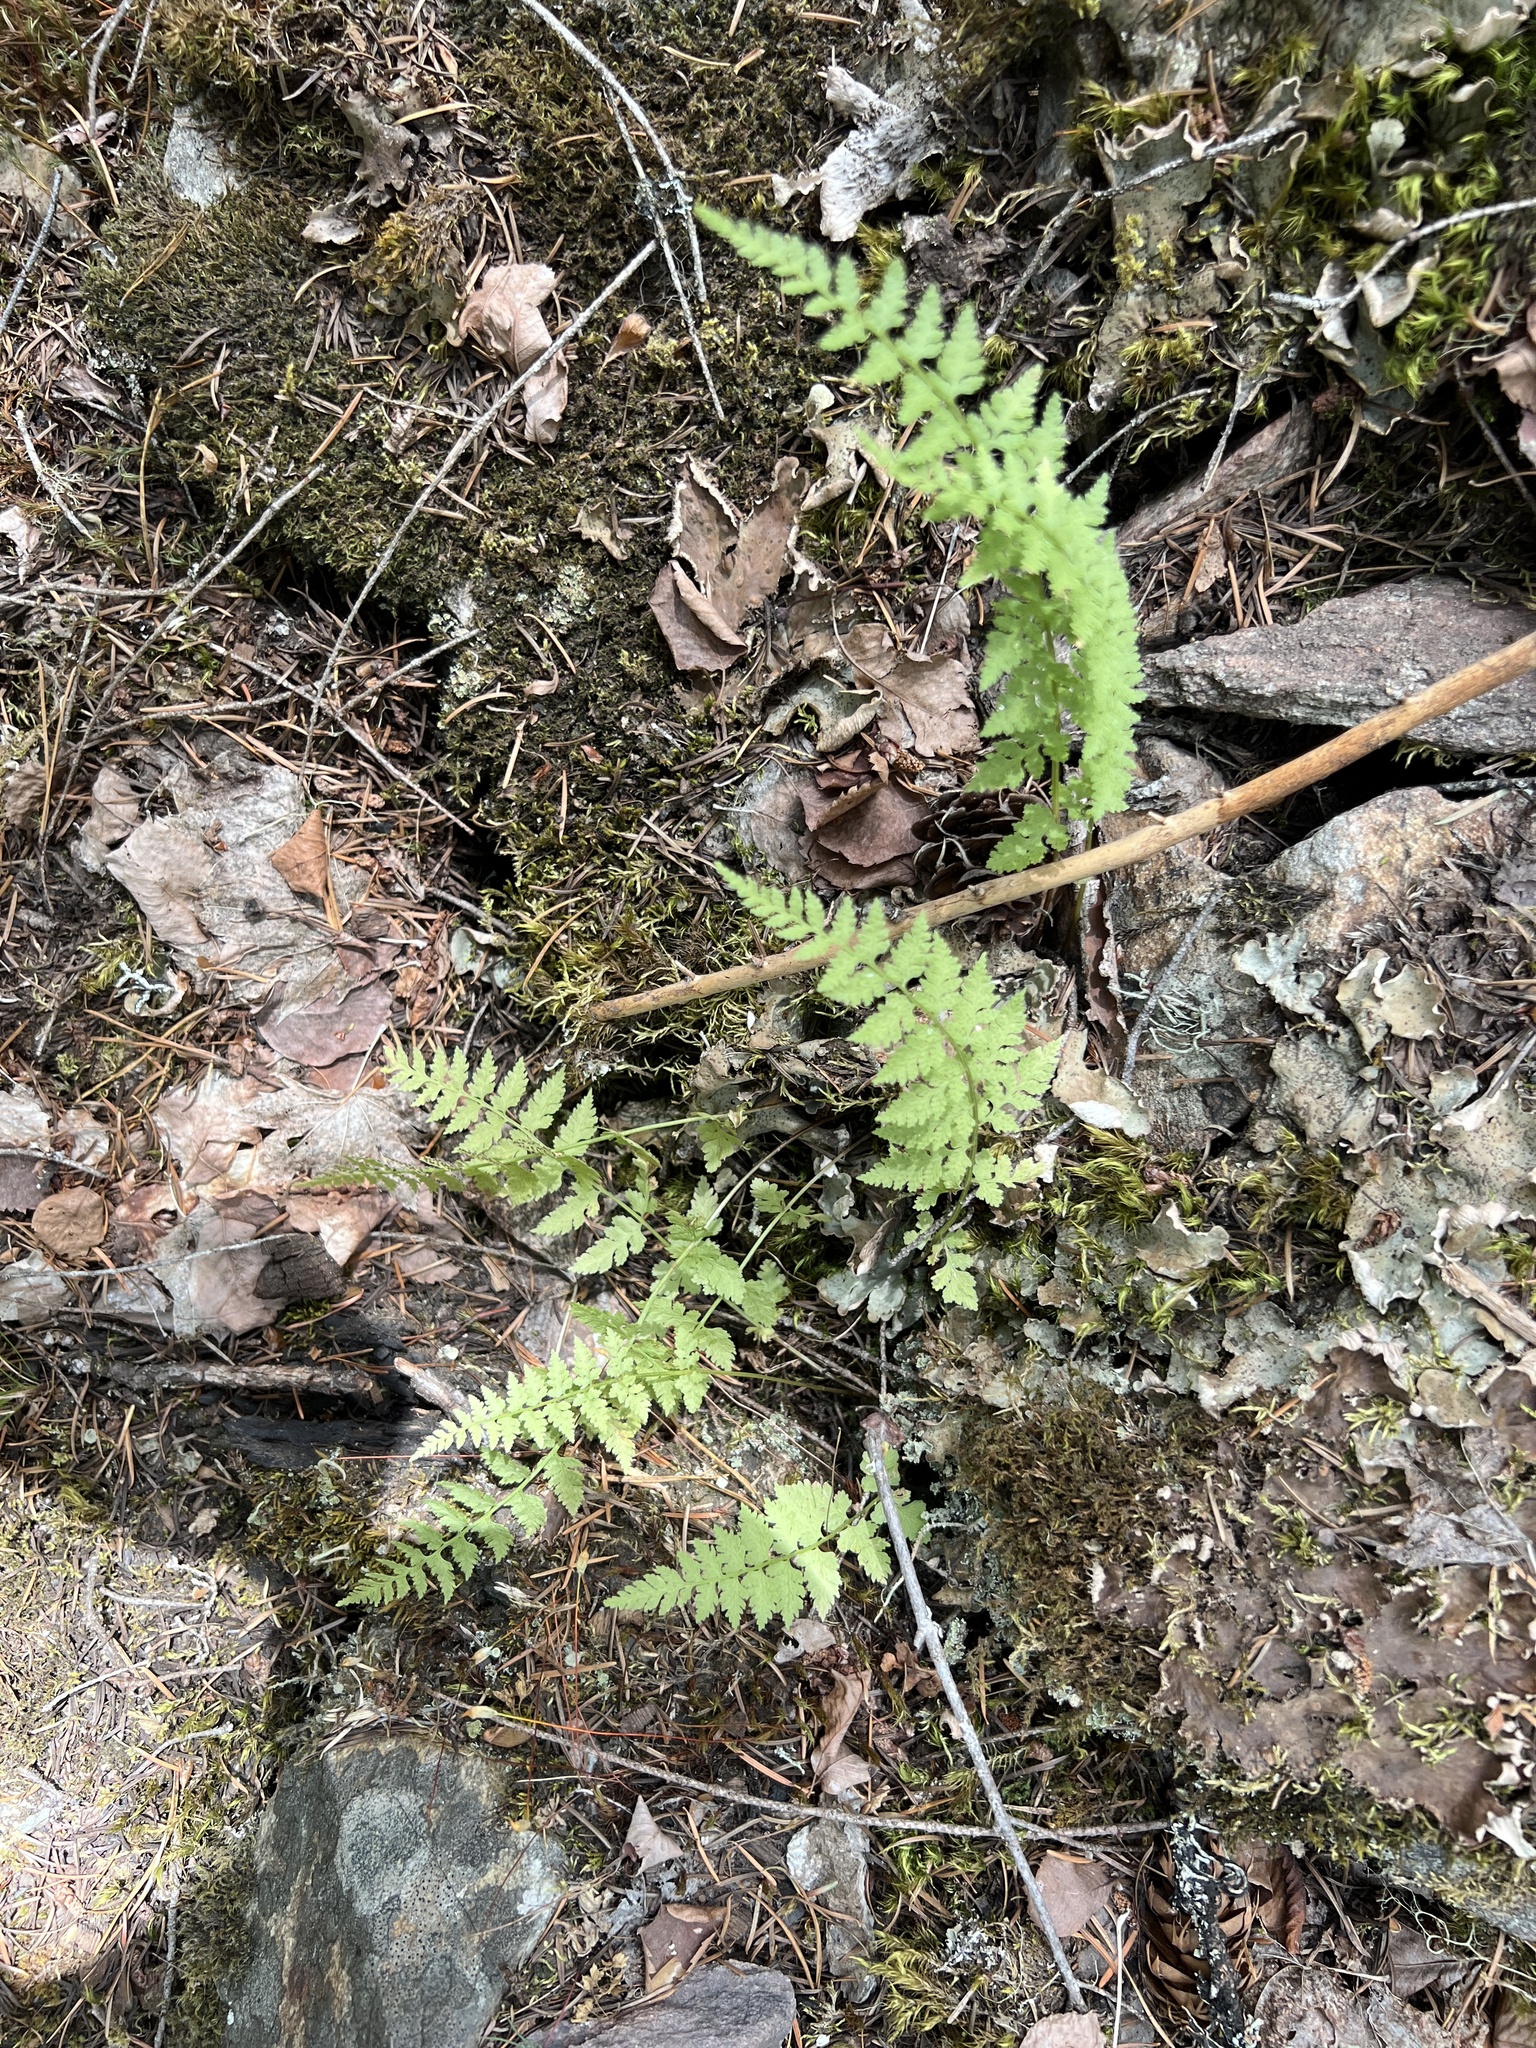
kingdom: Plantae
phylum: Tracheophyta
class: Polypodiopsida
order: Polypodiales
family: Cystopteridaceae
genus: Cystopteris
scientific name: Cystopteris fragilis
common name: Brittle bladder fern
